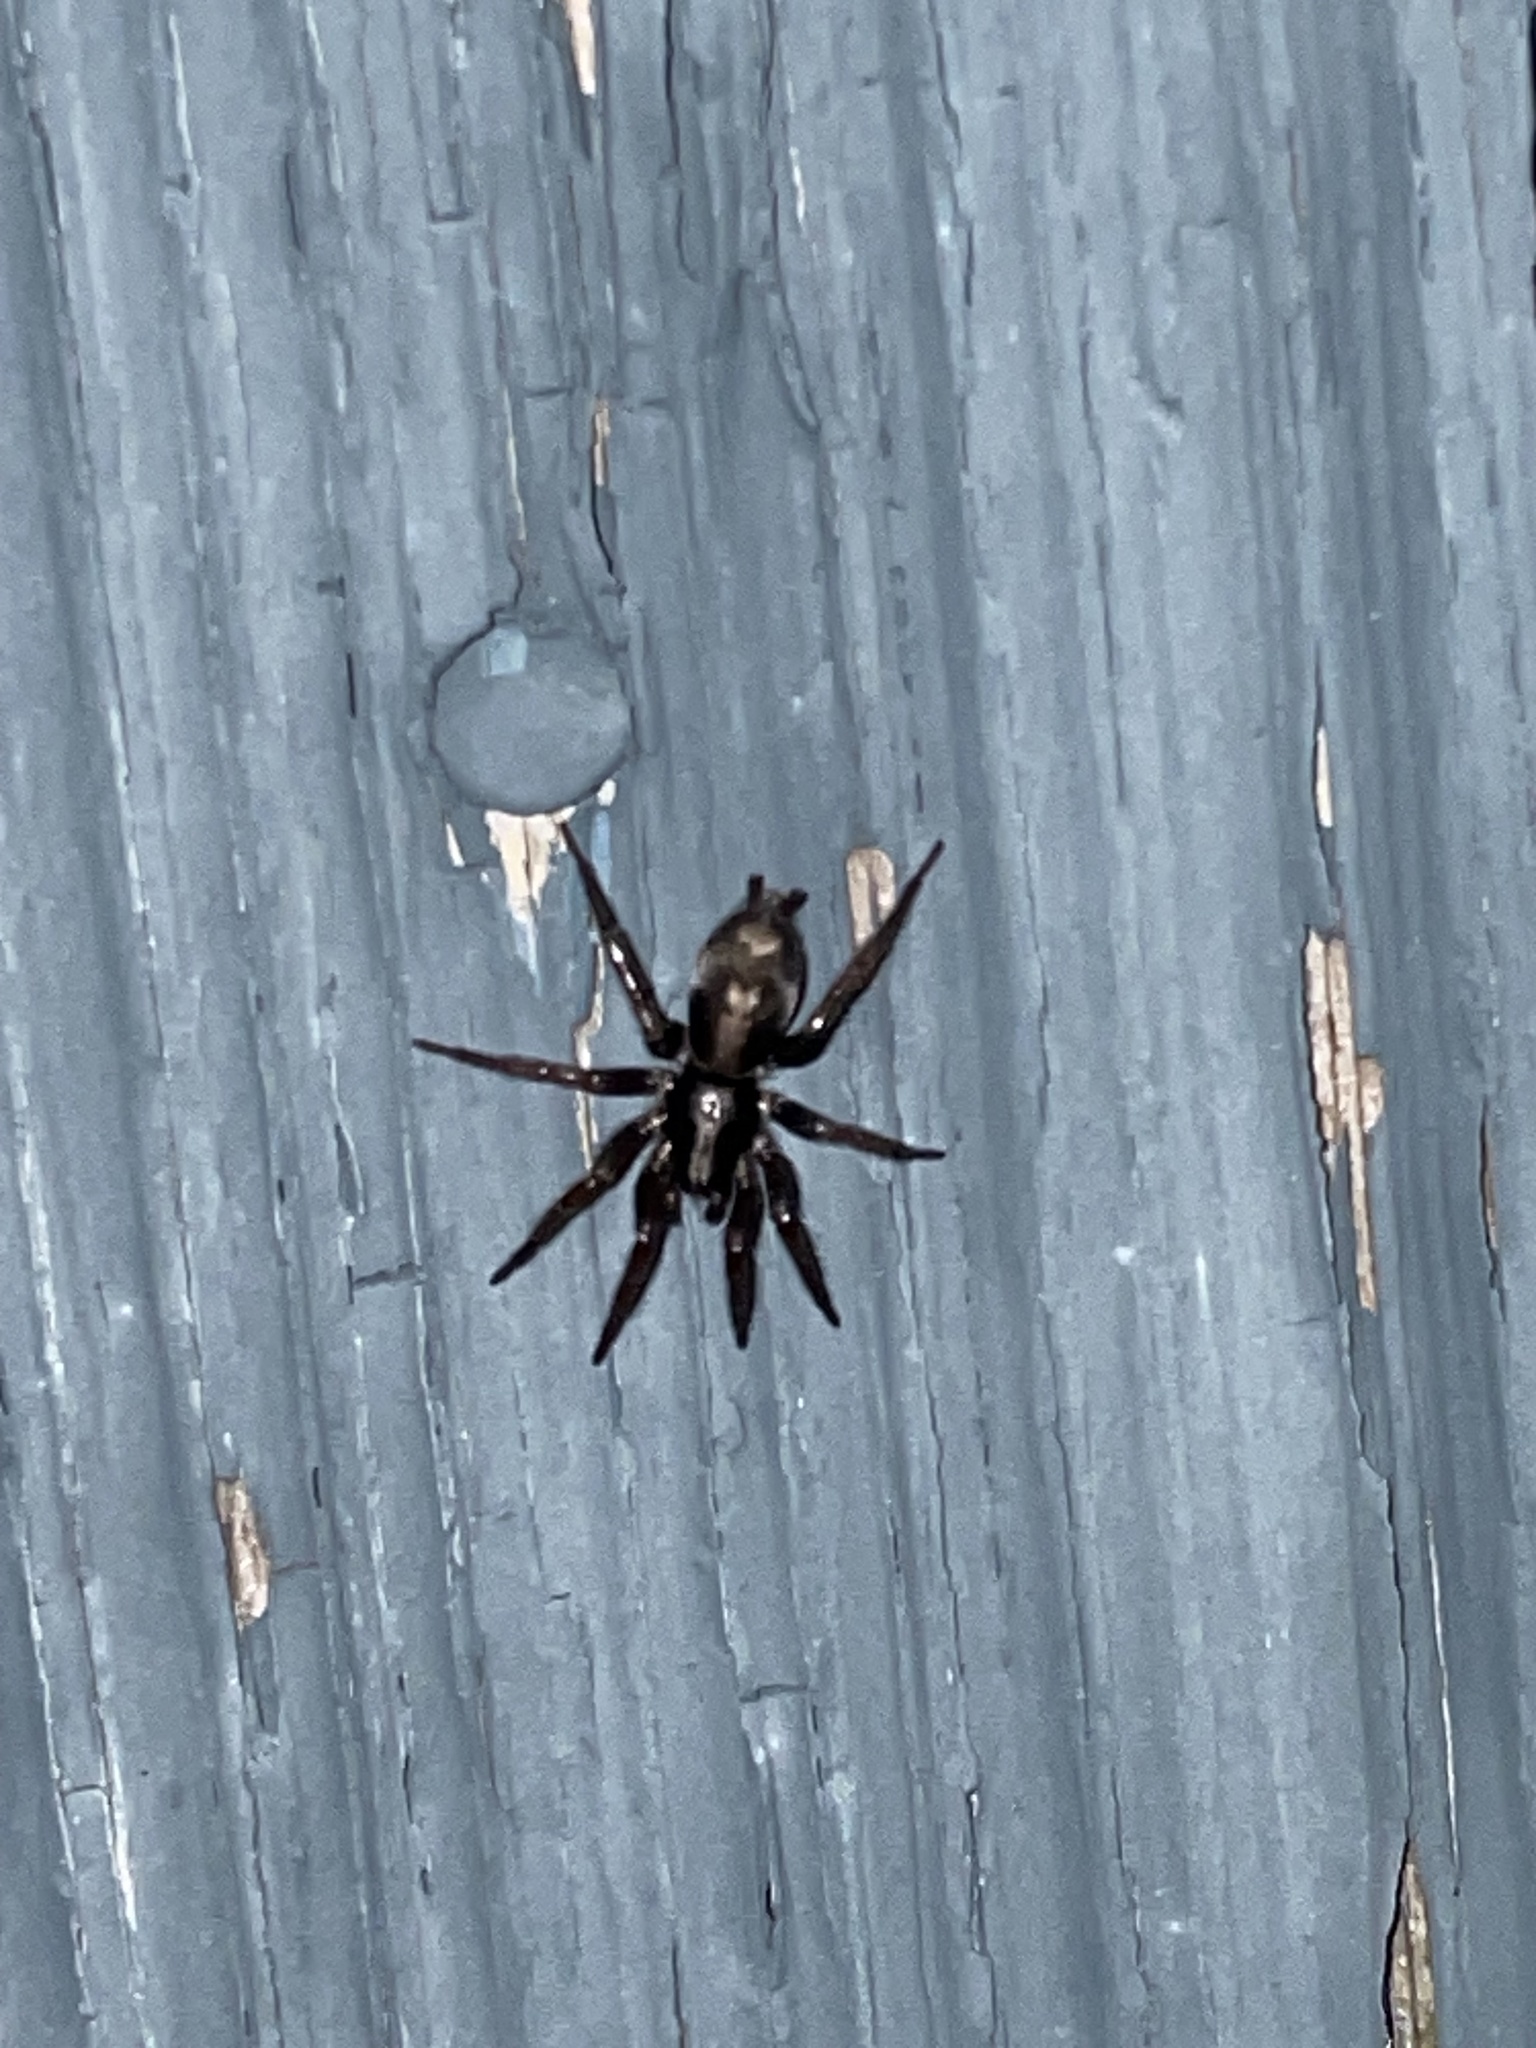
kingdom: Animalia
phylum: Arthropoda
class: Arachnida
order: Araneae
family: Gnaphosidae
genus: Herpyllus
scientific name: Herpyllus ecclesiasticus
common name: Eastern parson spider
